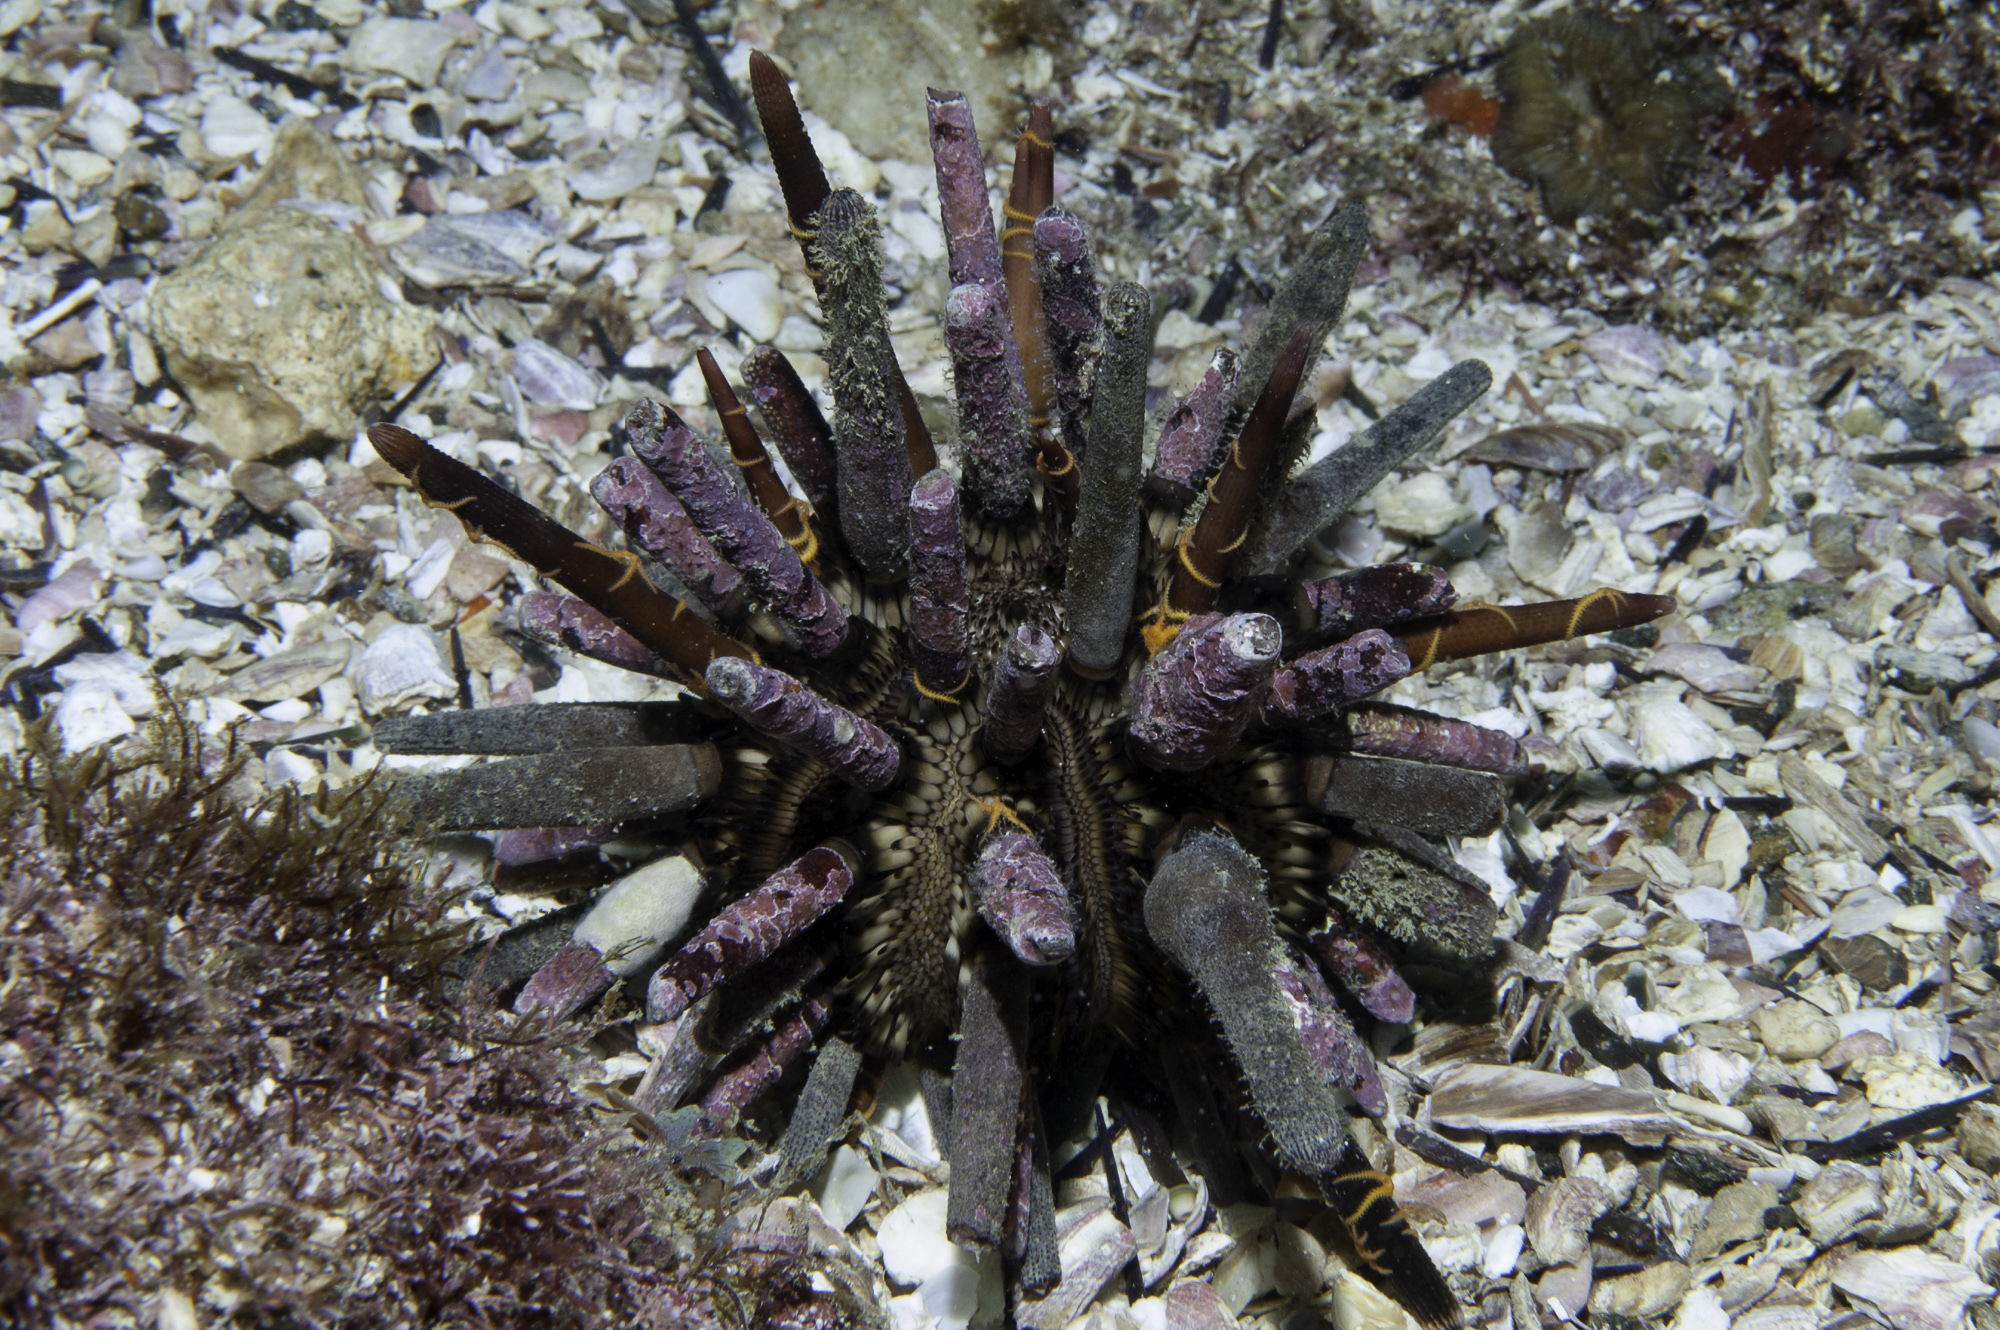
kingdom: Animalia
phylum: Echinodermata
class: Echinoidea
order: Cidaroida
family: Cidaridae
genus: Eucidaris
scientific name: Eucidaris tribuloides
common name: Slate pencil urchin
